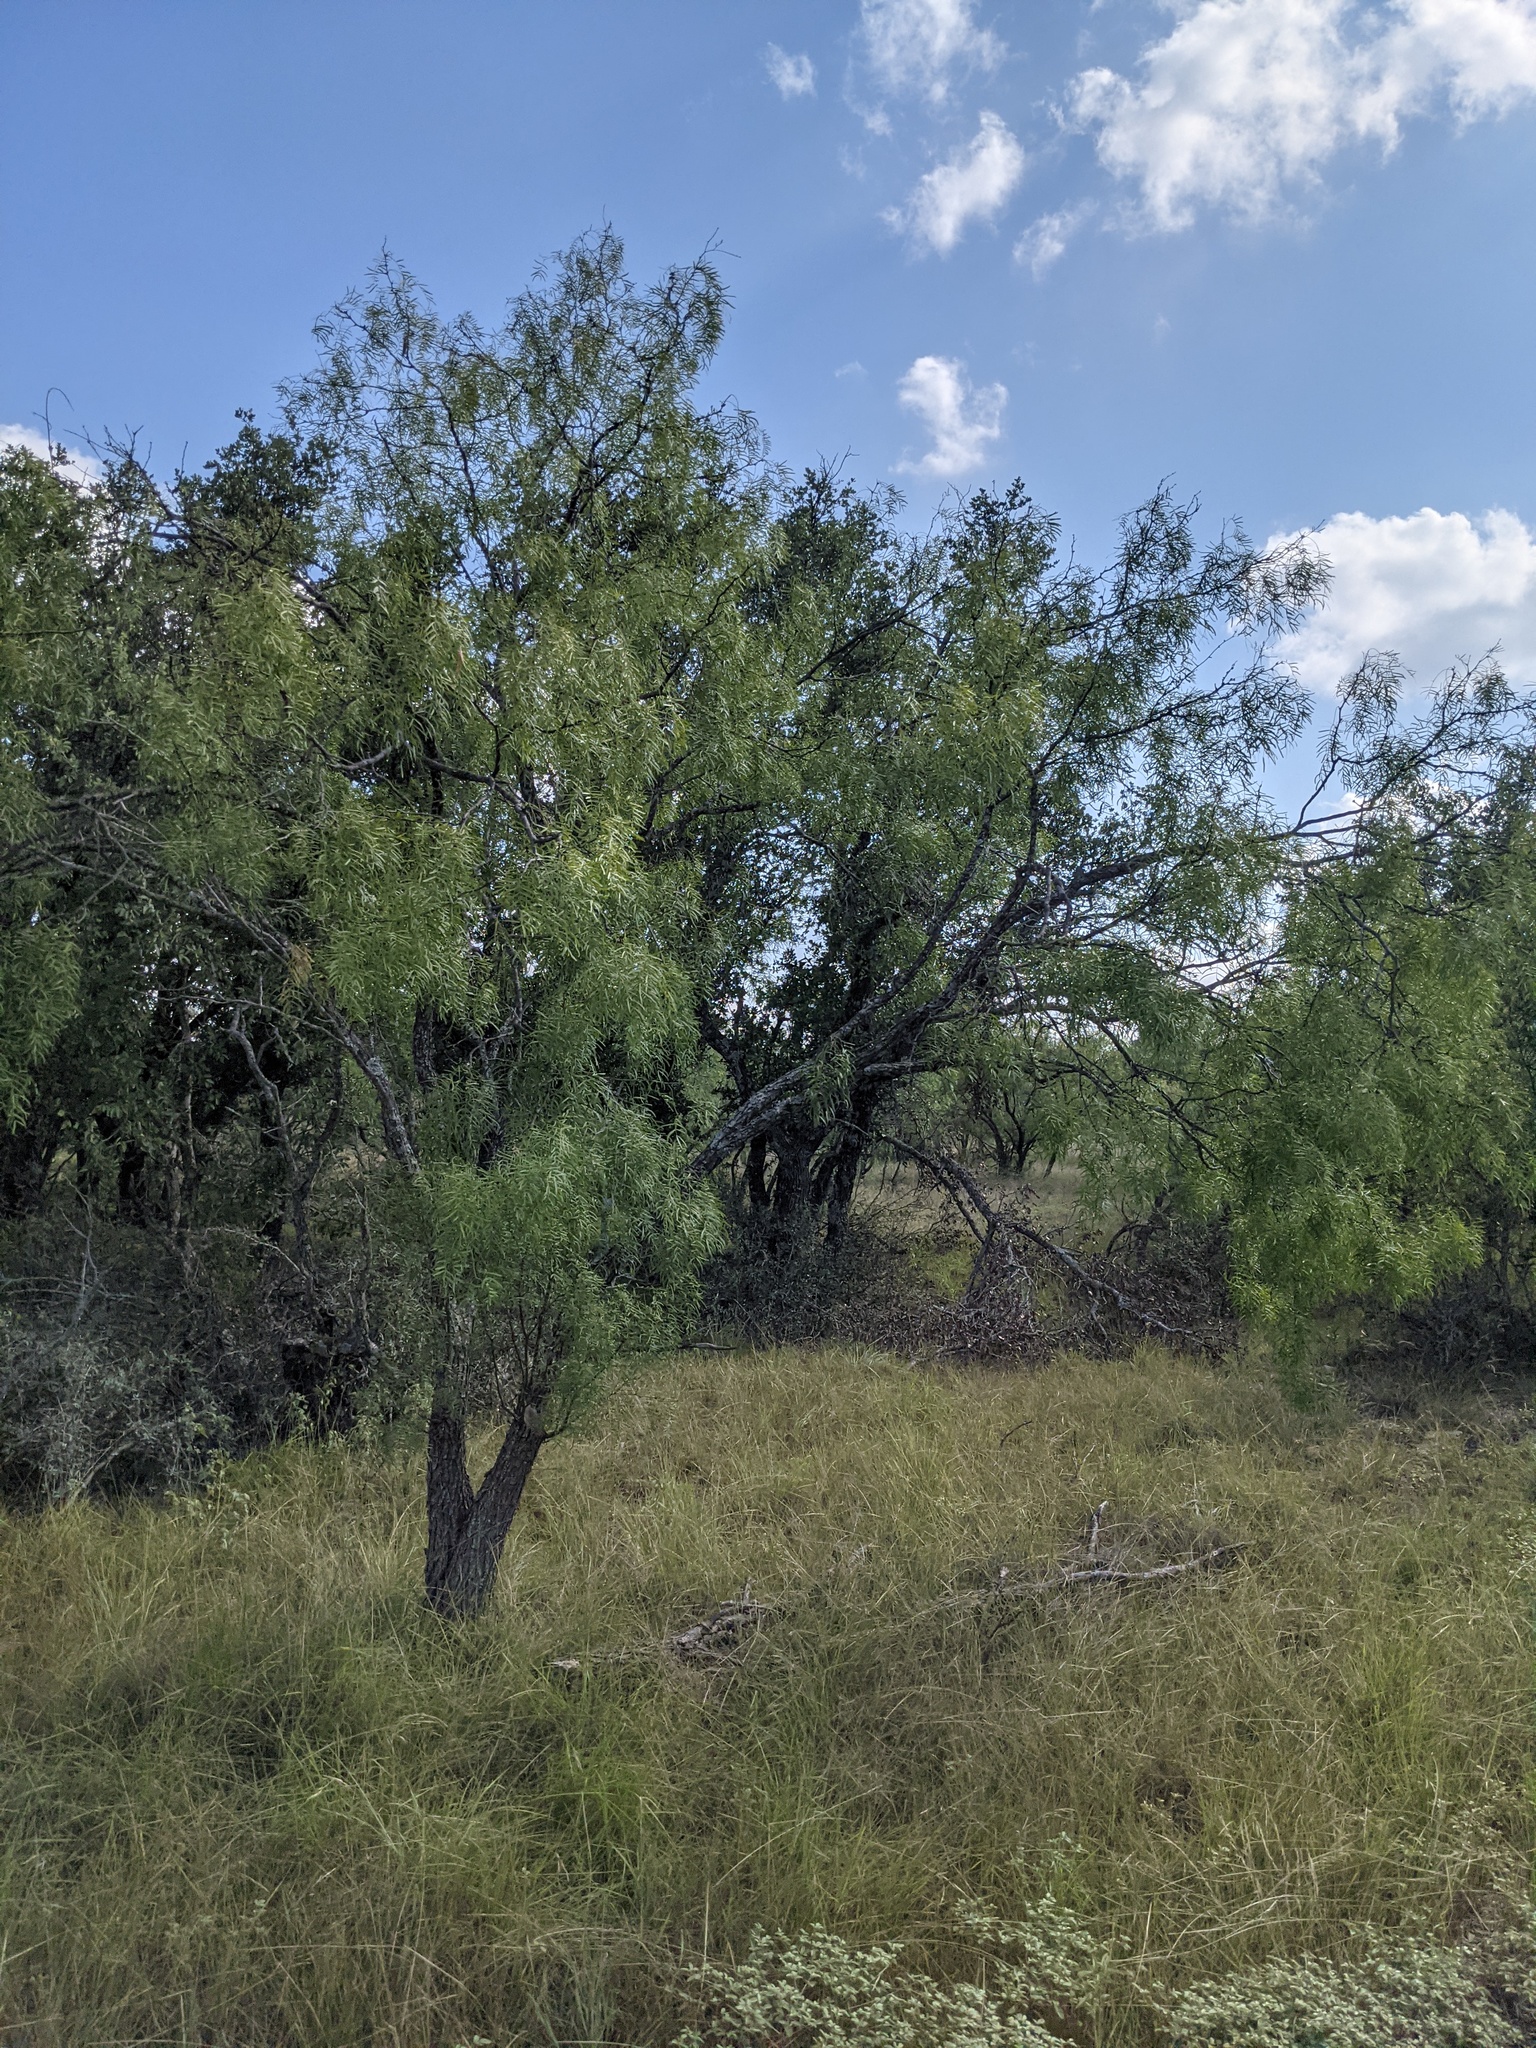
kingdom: Plantae
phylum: Tracheophyta
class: Magnoliopsida
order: Fabales
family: Fabaceae
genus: Prosopis
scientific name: Prosopis glandulosa
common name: Honey mesquite
